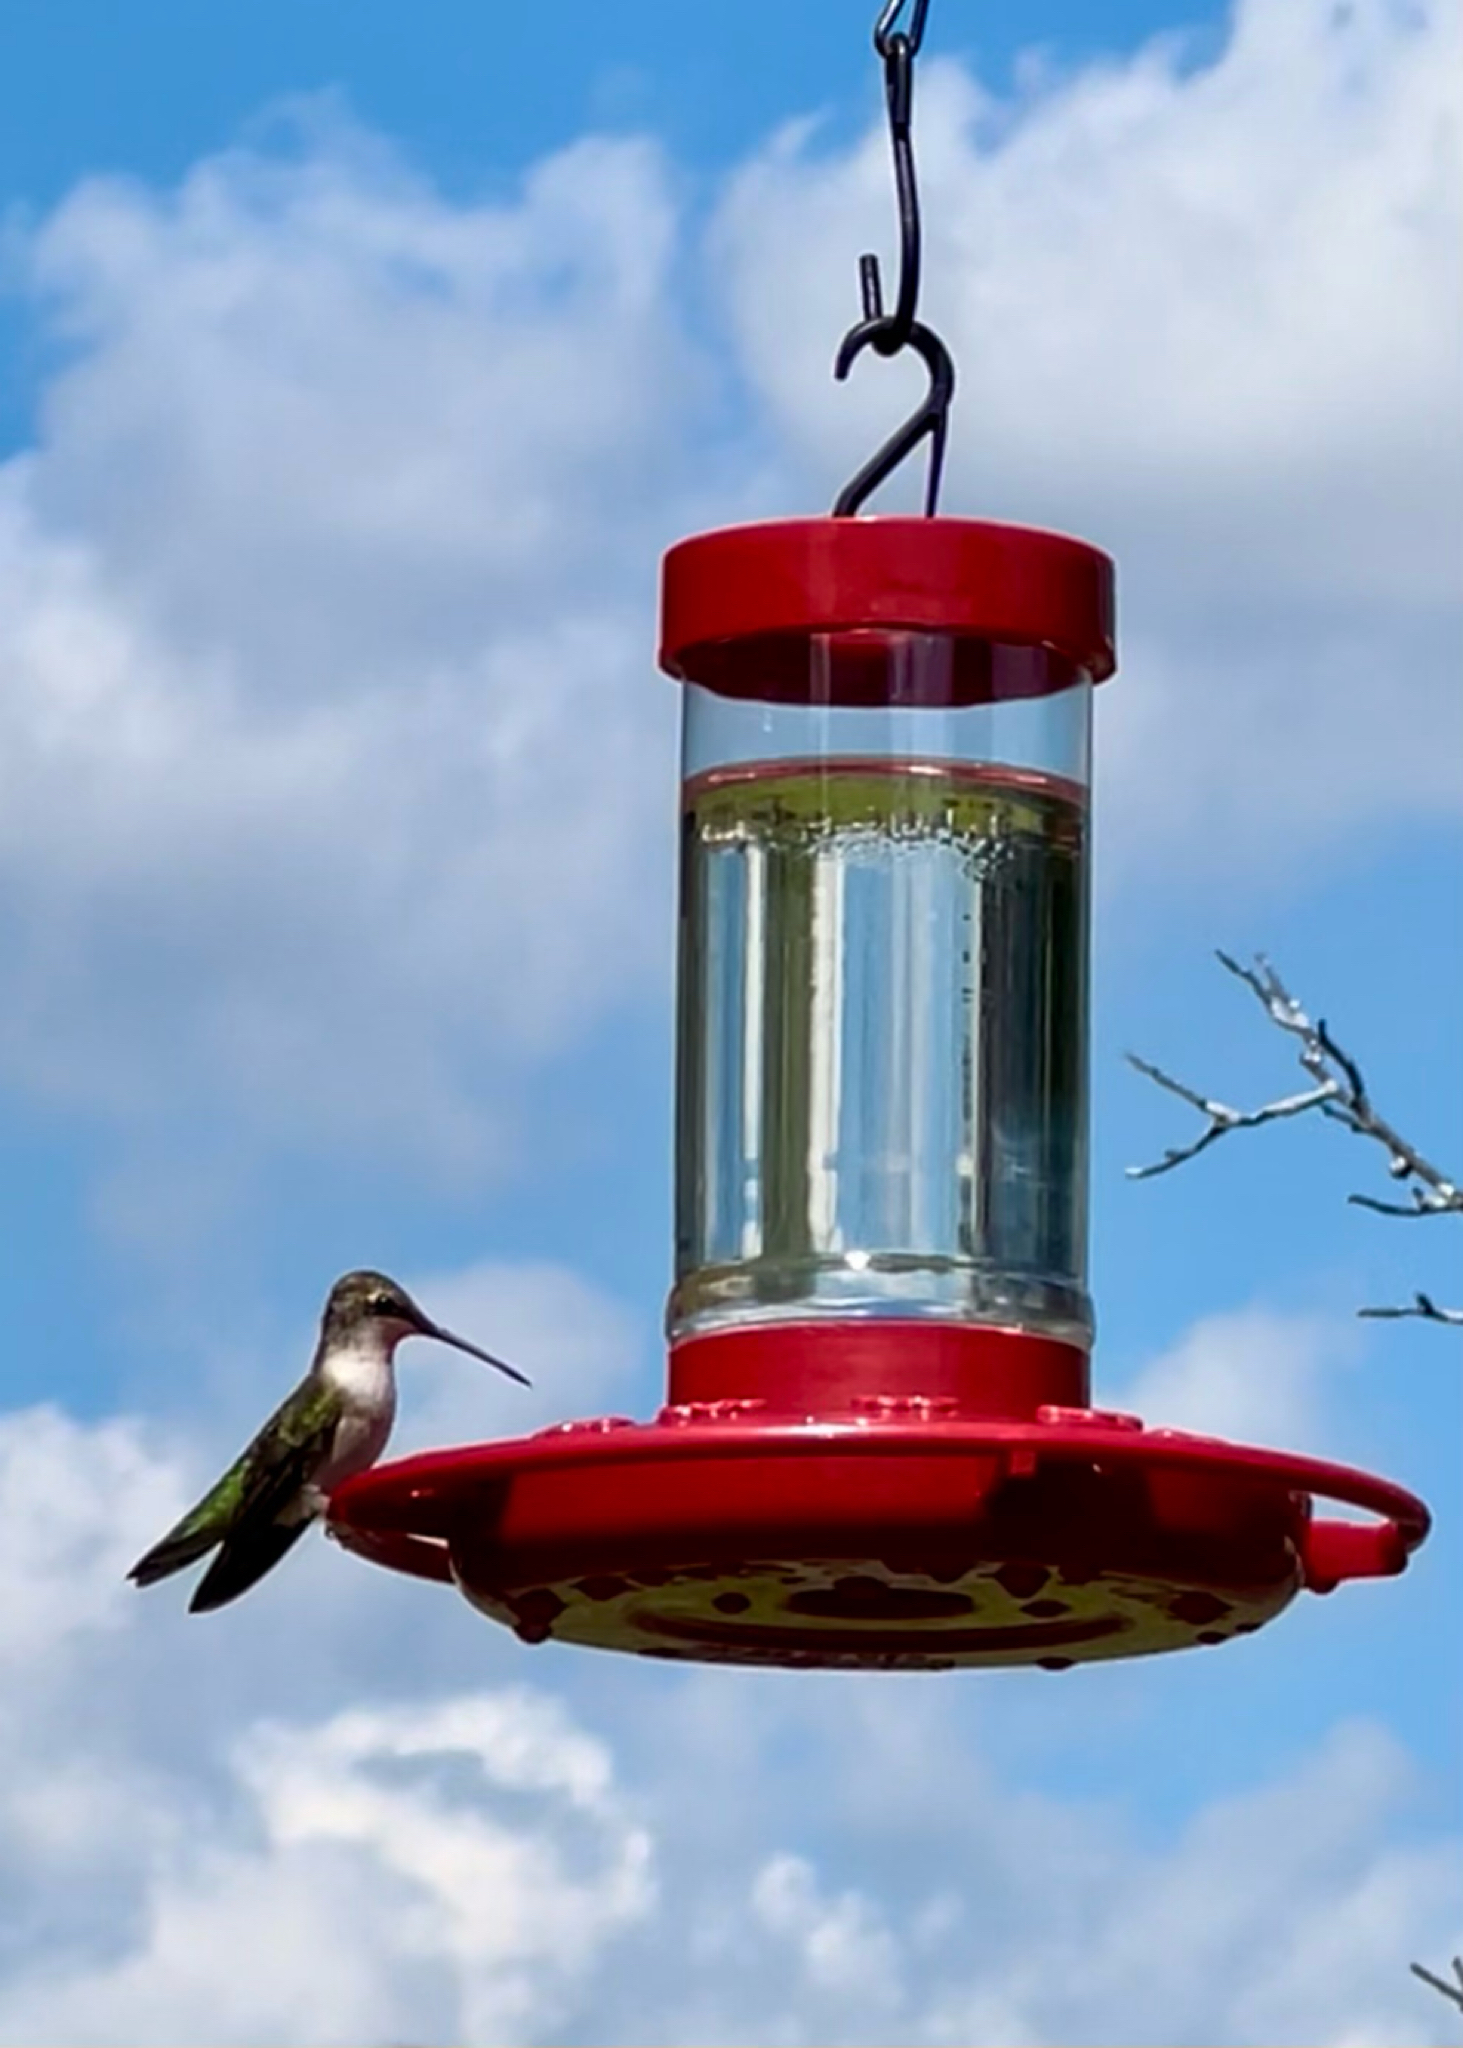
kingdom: Animalia
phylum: Chordata
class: Aves
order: Apodiformes
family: Trochilidae
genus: Archilochus
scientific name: Archilochus colubris
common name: Ruby-throated hummingbird
